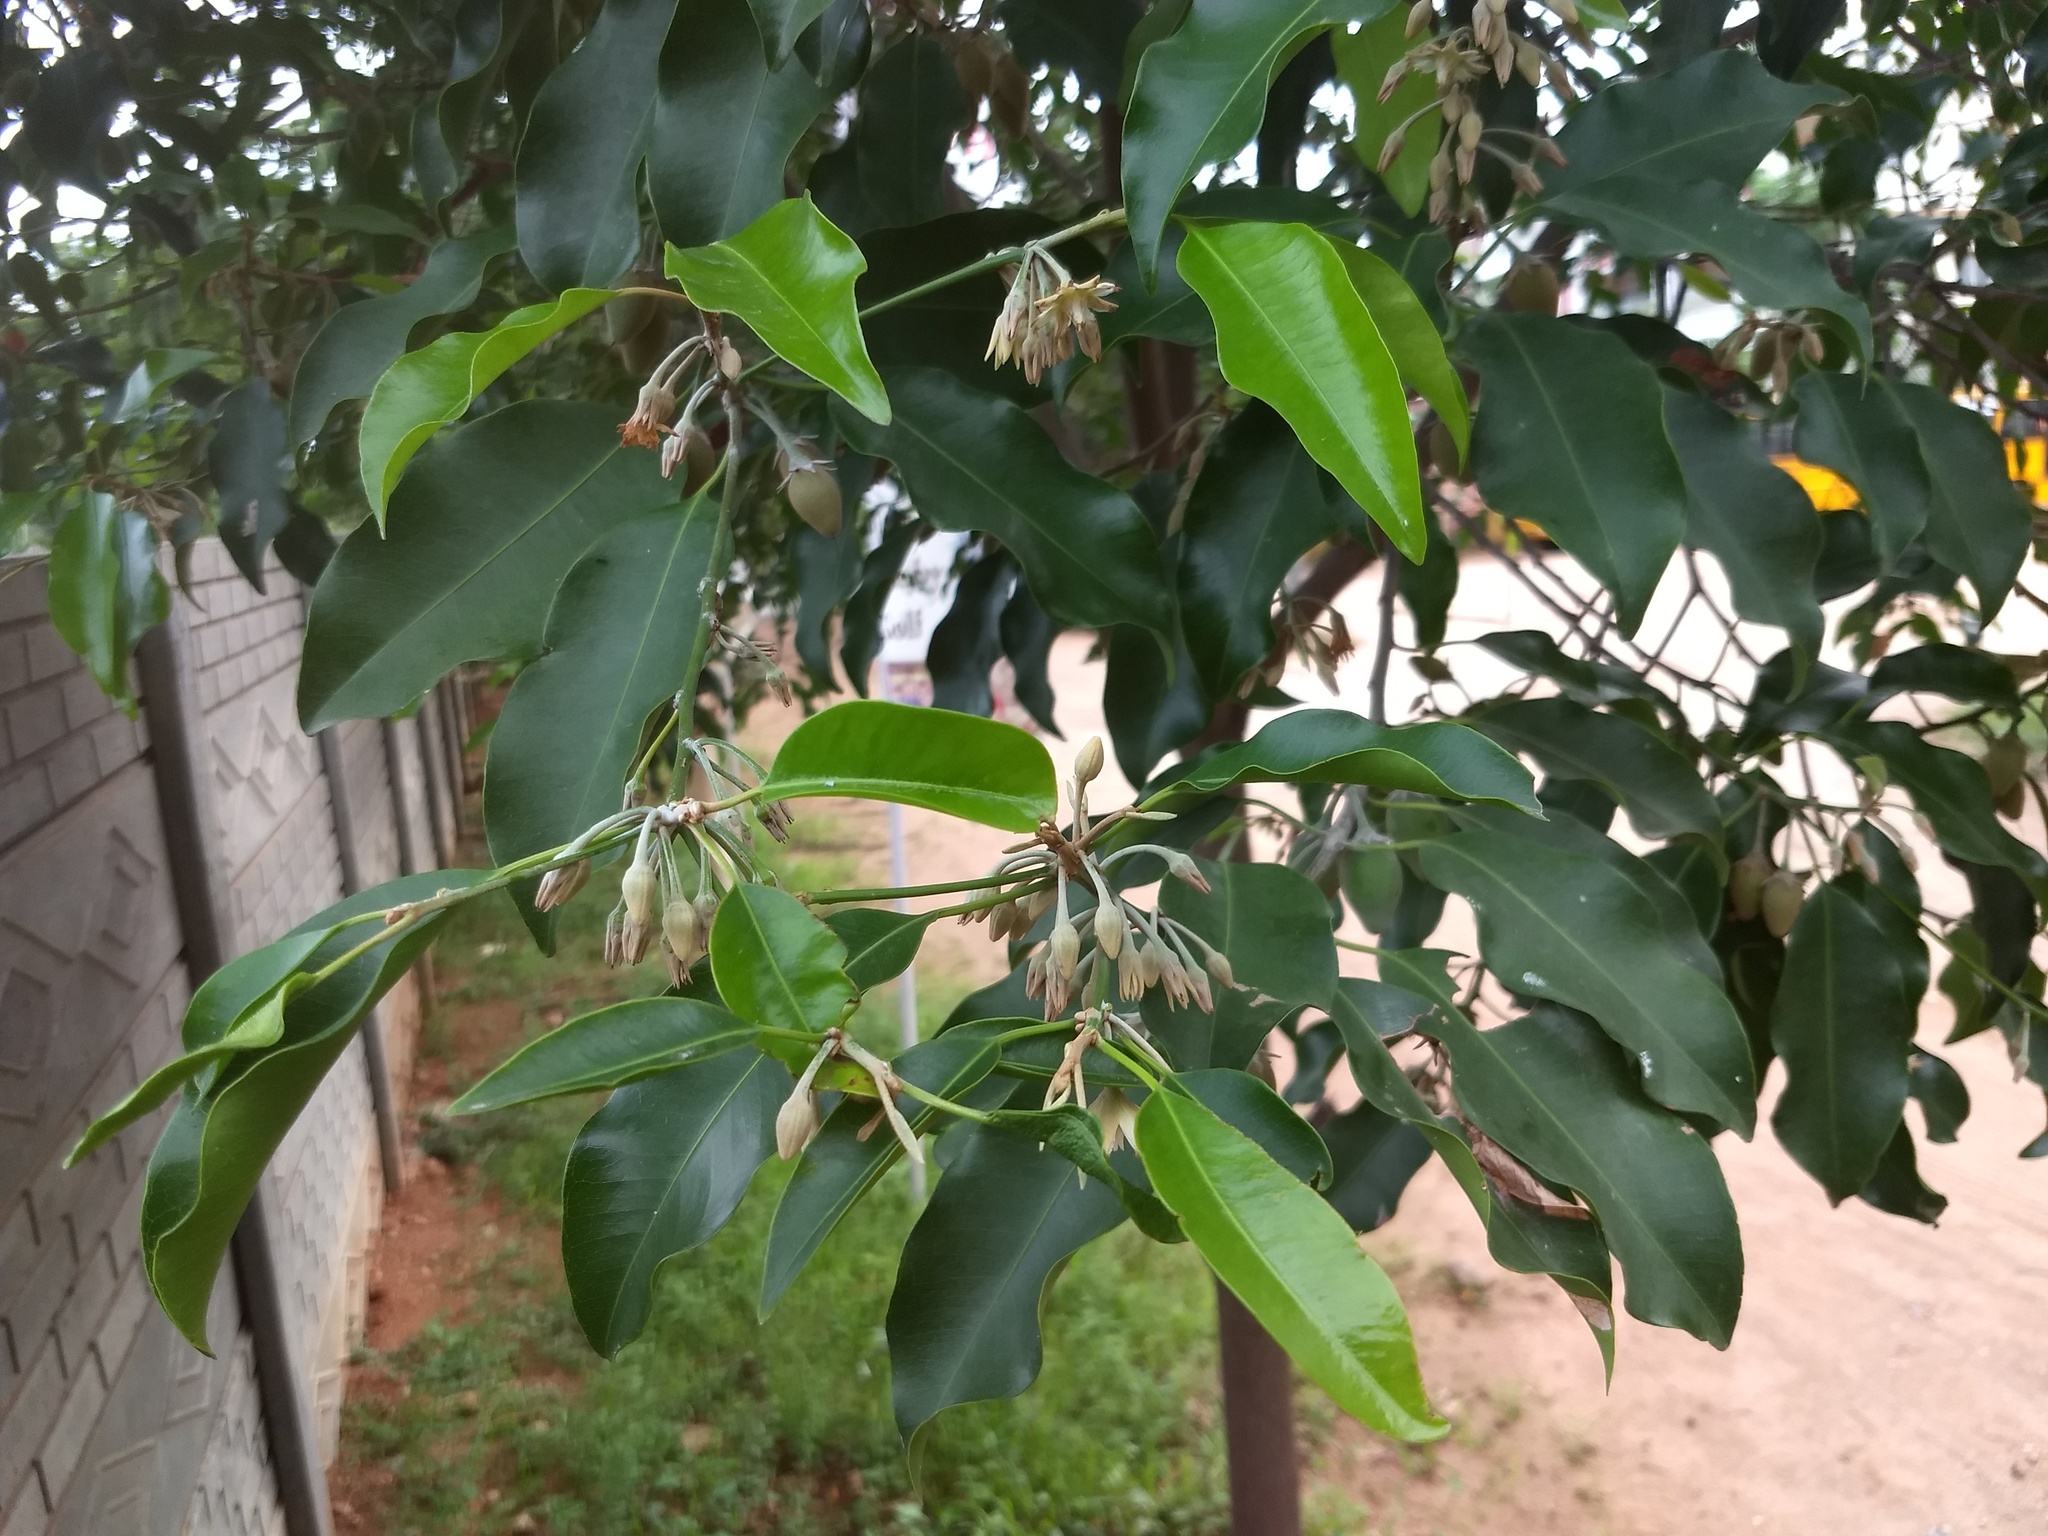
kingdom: Plantae
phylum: Tracheophyta
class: Magnoliopsida
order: Ericales
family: Sapotaceae
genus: Mimusops
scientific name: Mimusops elengi
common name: Spanish cherry
